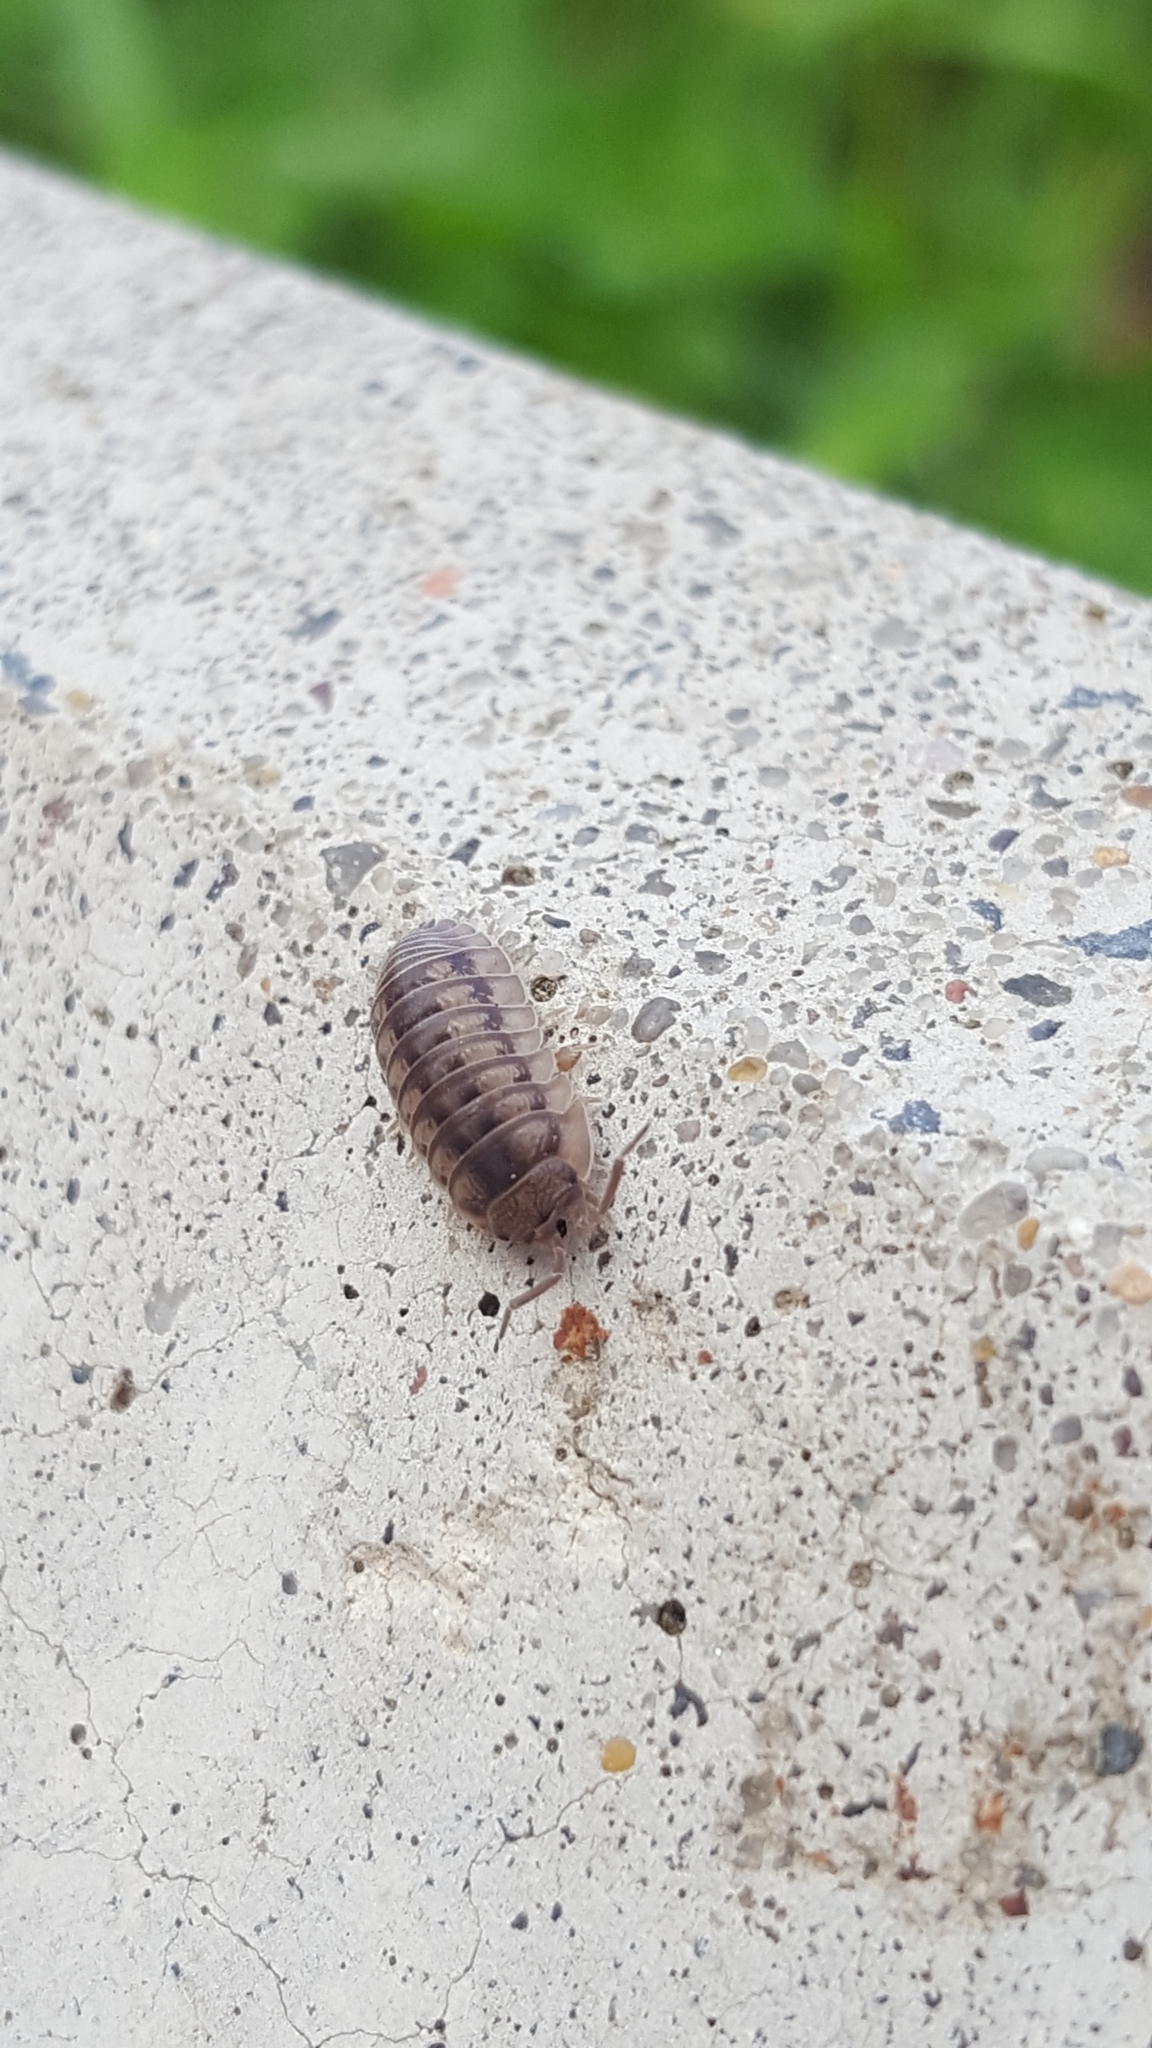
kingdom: Animalia
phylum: Arthropoda
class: Malacostraca
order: Isopoda
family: Armadillidiidae
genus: Armadillidium
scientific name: Armadillidium nasatum
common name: Isopod
